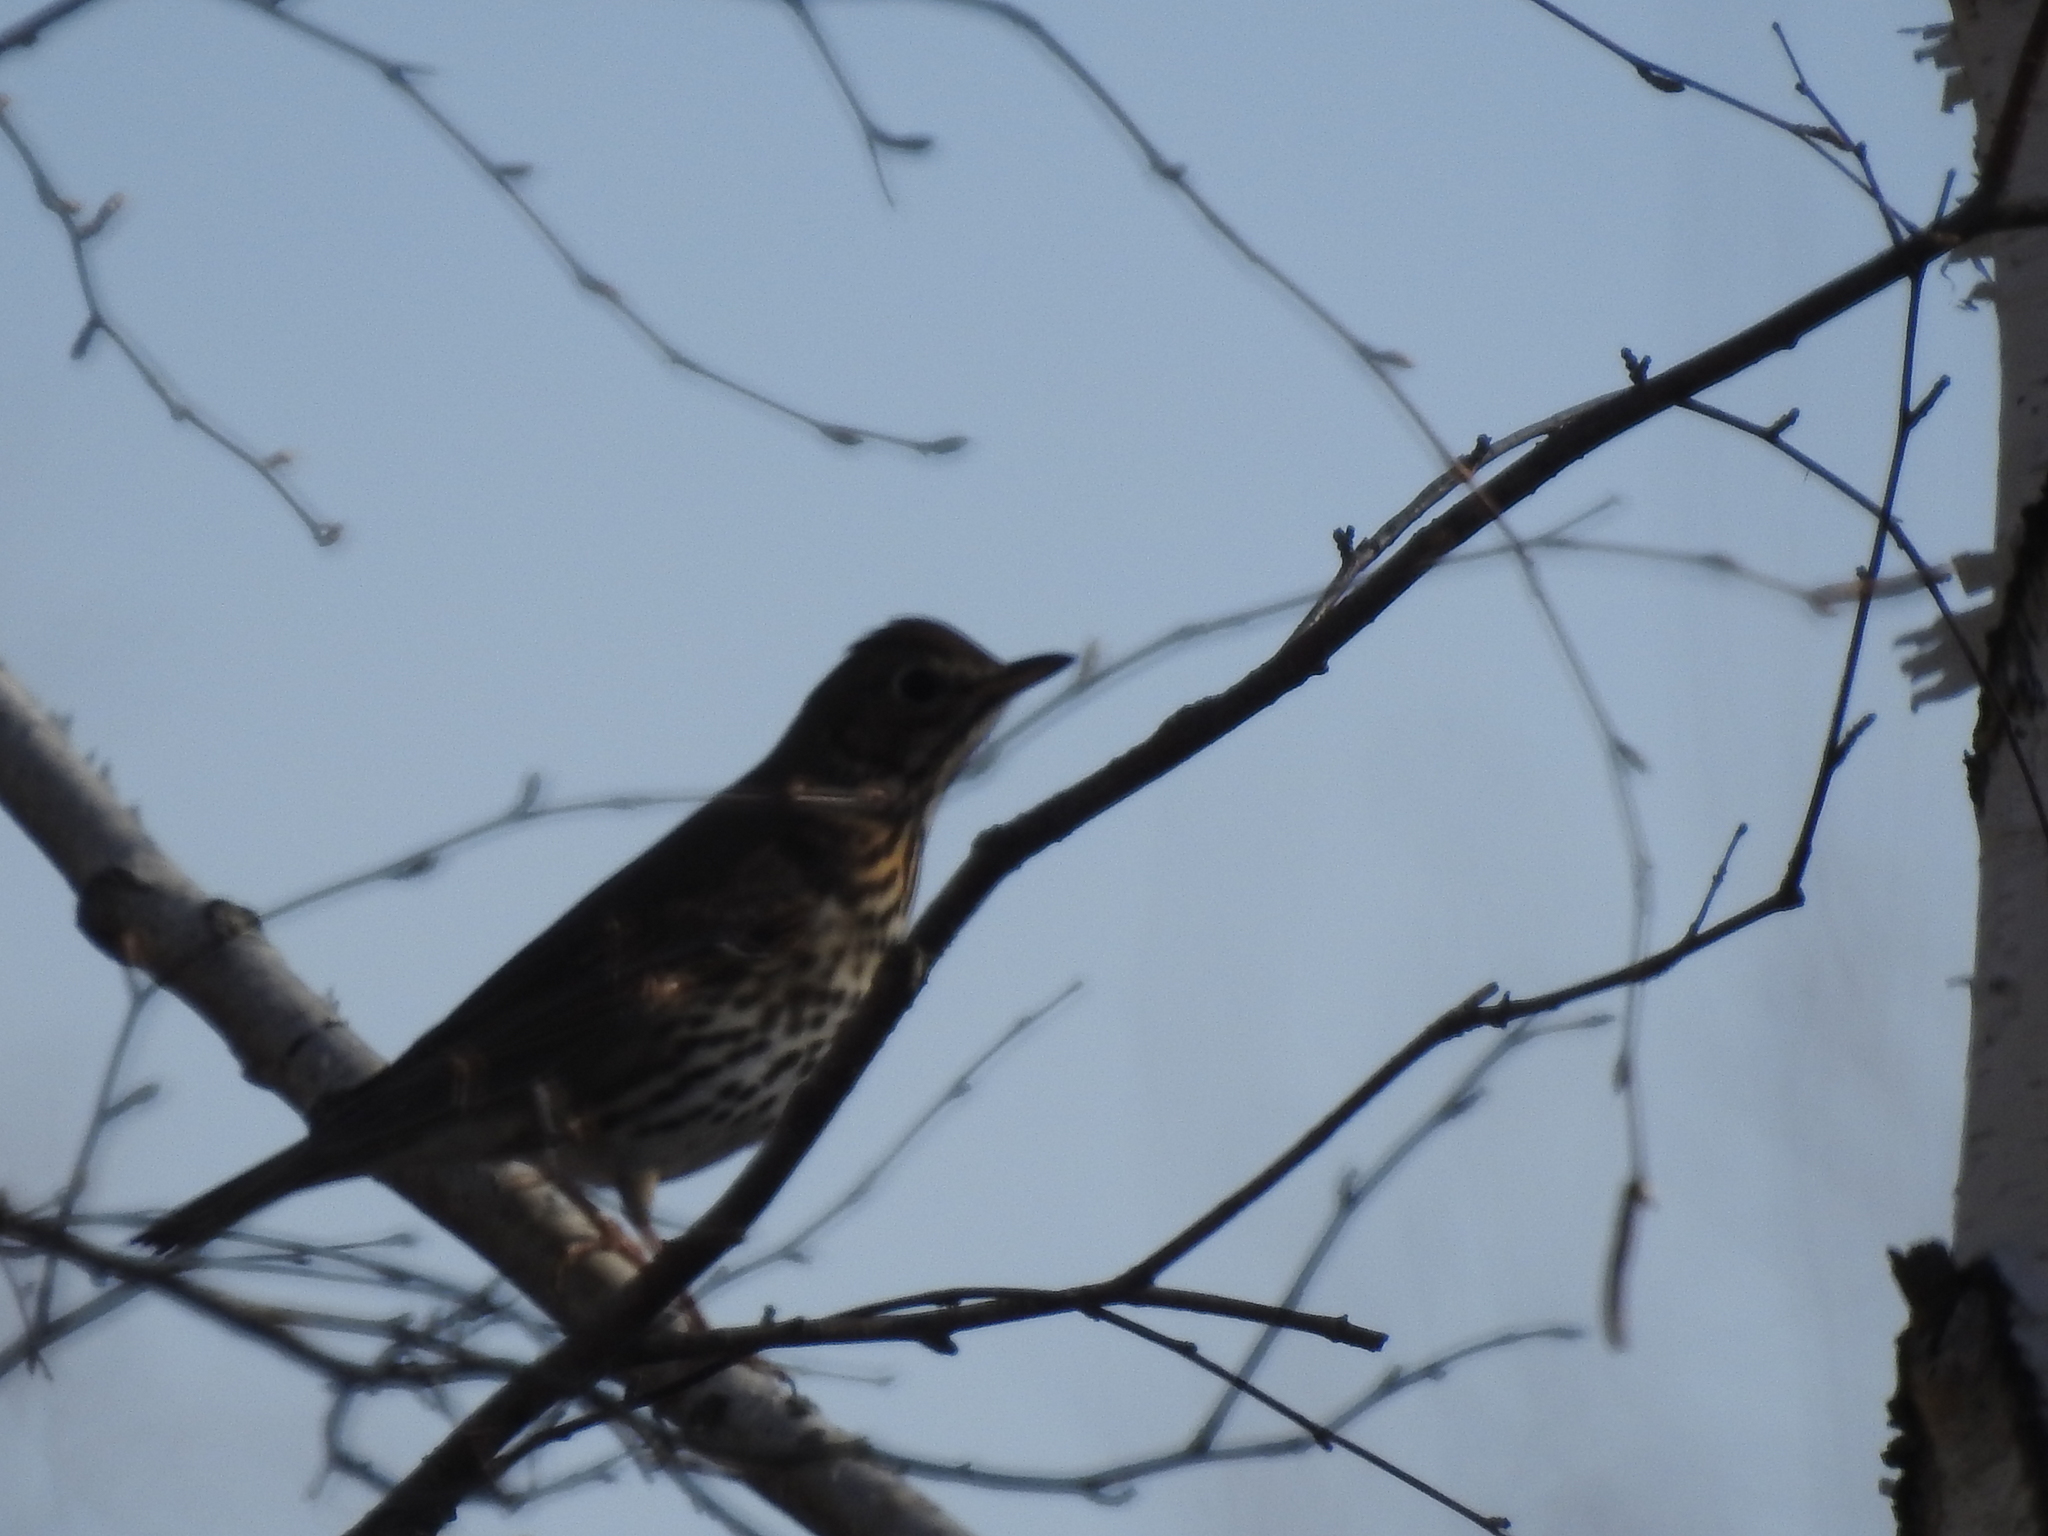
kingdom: Animalia
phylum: Chordata
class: Aves
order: Passeriformes
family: Turdidae
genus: Turdus
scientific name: Turdus philomelos
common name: Song thrush
